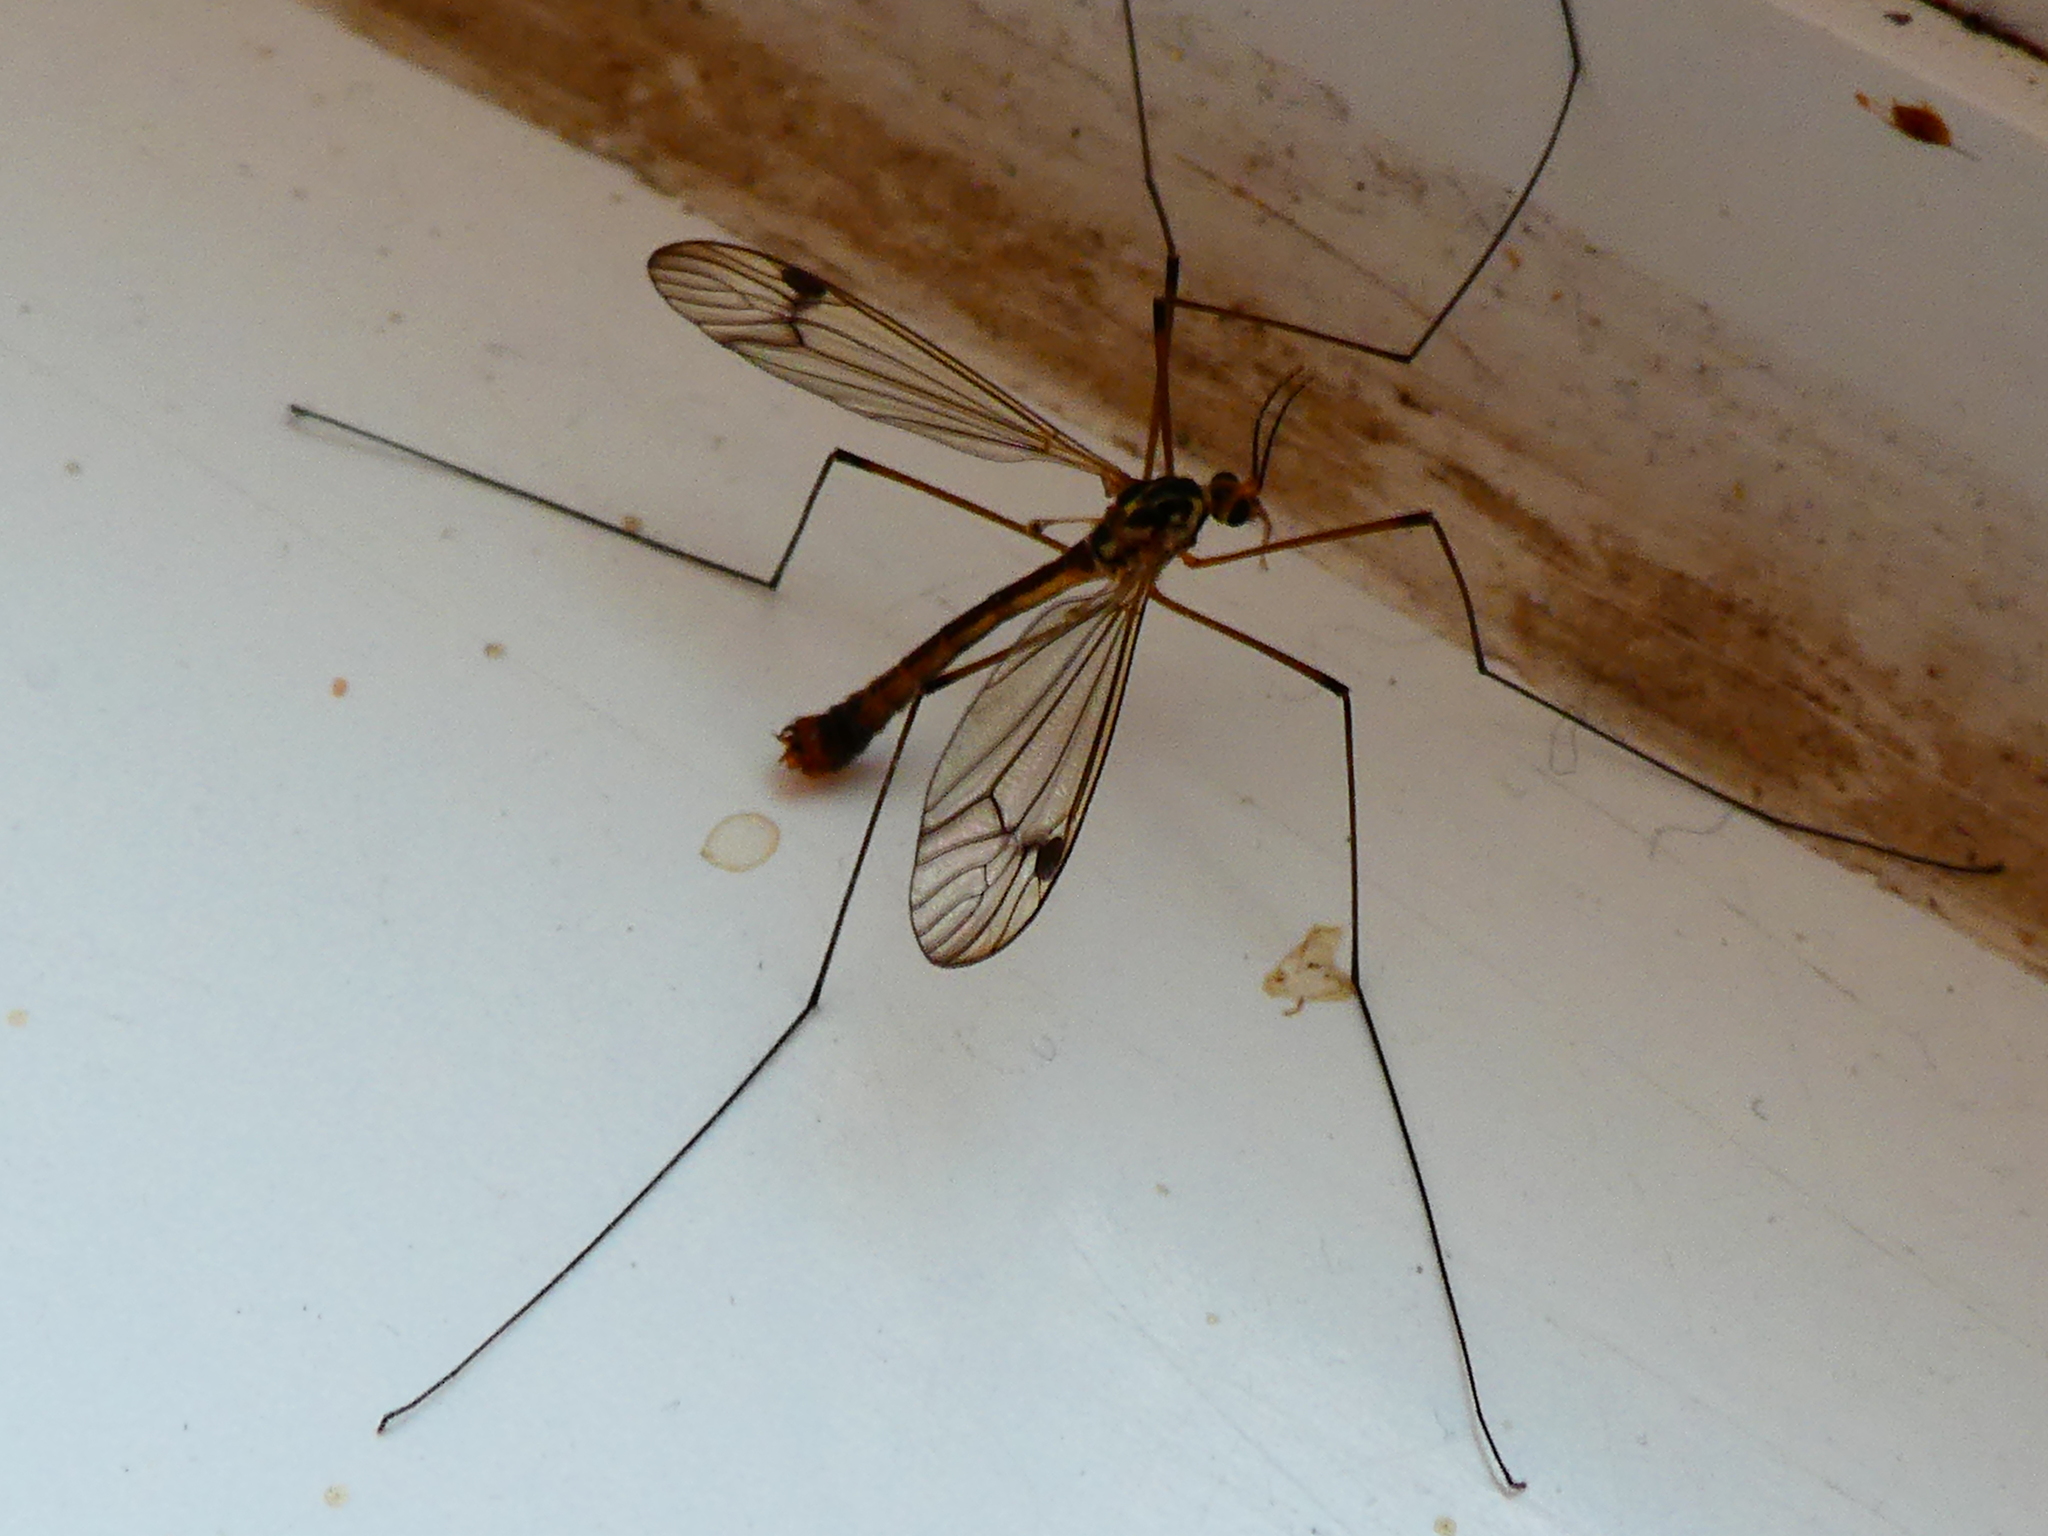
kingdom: Animalia
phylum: Arthropoda
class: Insecta
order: Diptera
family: Tipulidae
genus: Nephrotoma
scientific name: Nephrotoma quadrifaria
